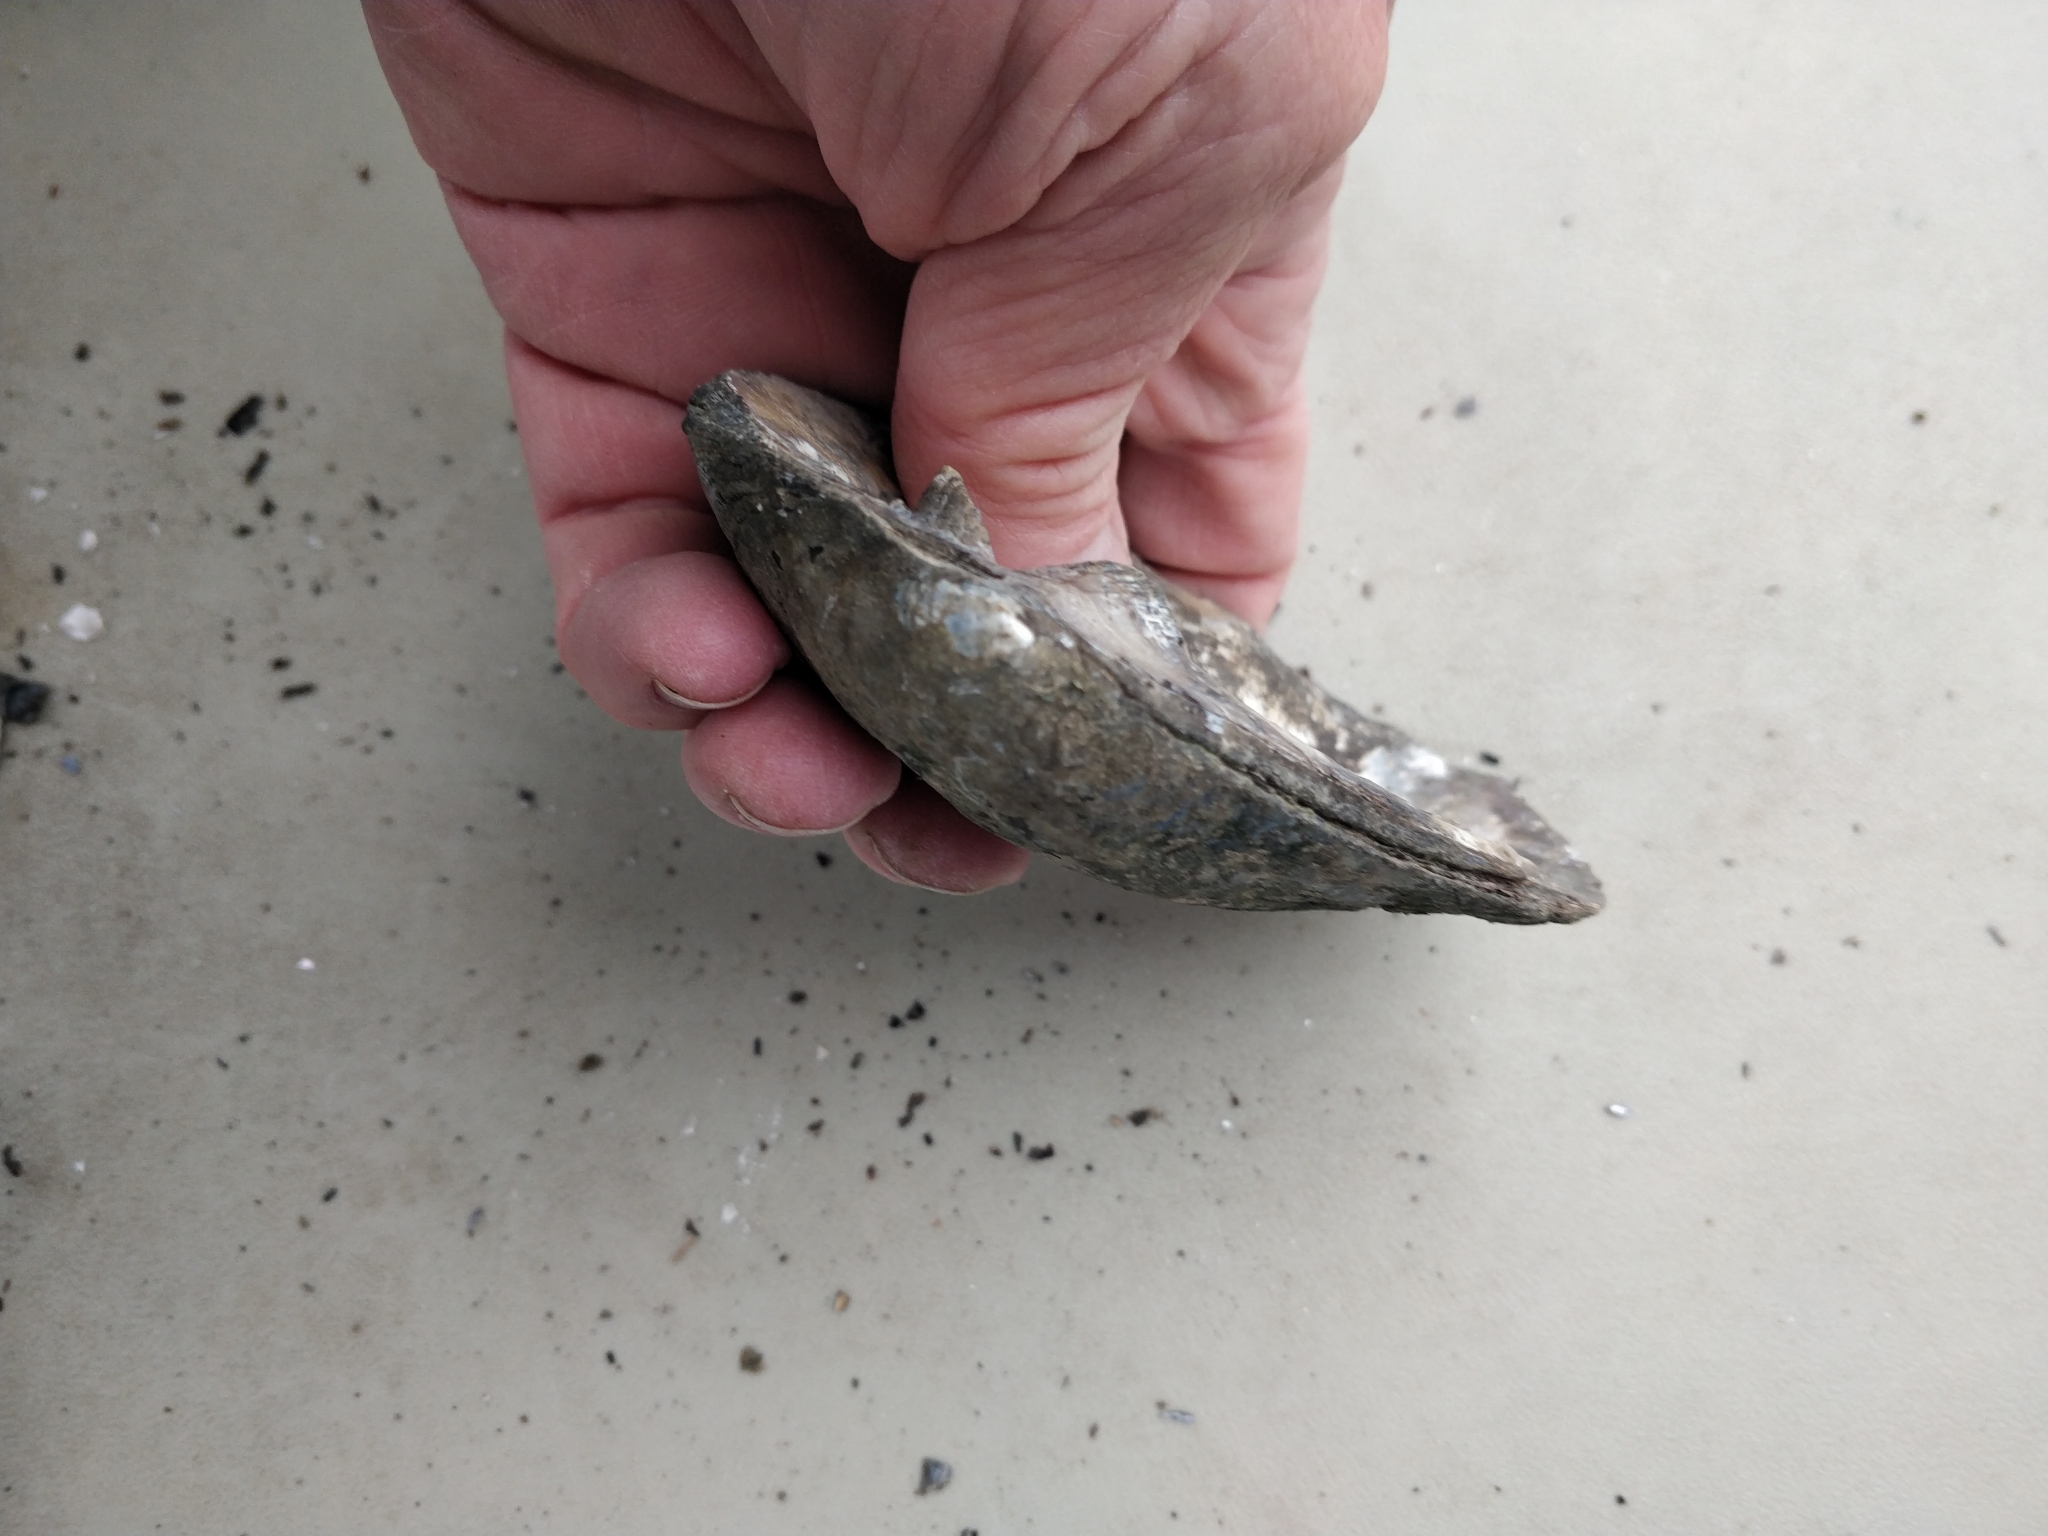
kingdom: Animalia
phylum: Mollusca
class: Bivalvia
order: Unionida
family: Unionidae
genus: Amblema
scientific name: Amblema plicata
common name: Threeridge
